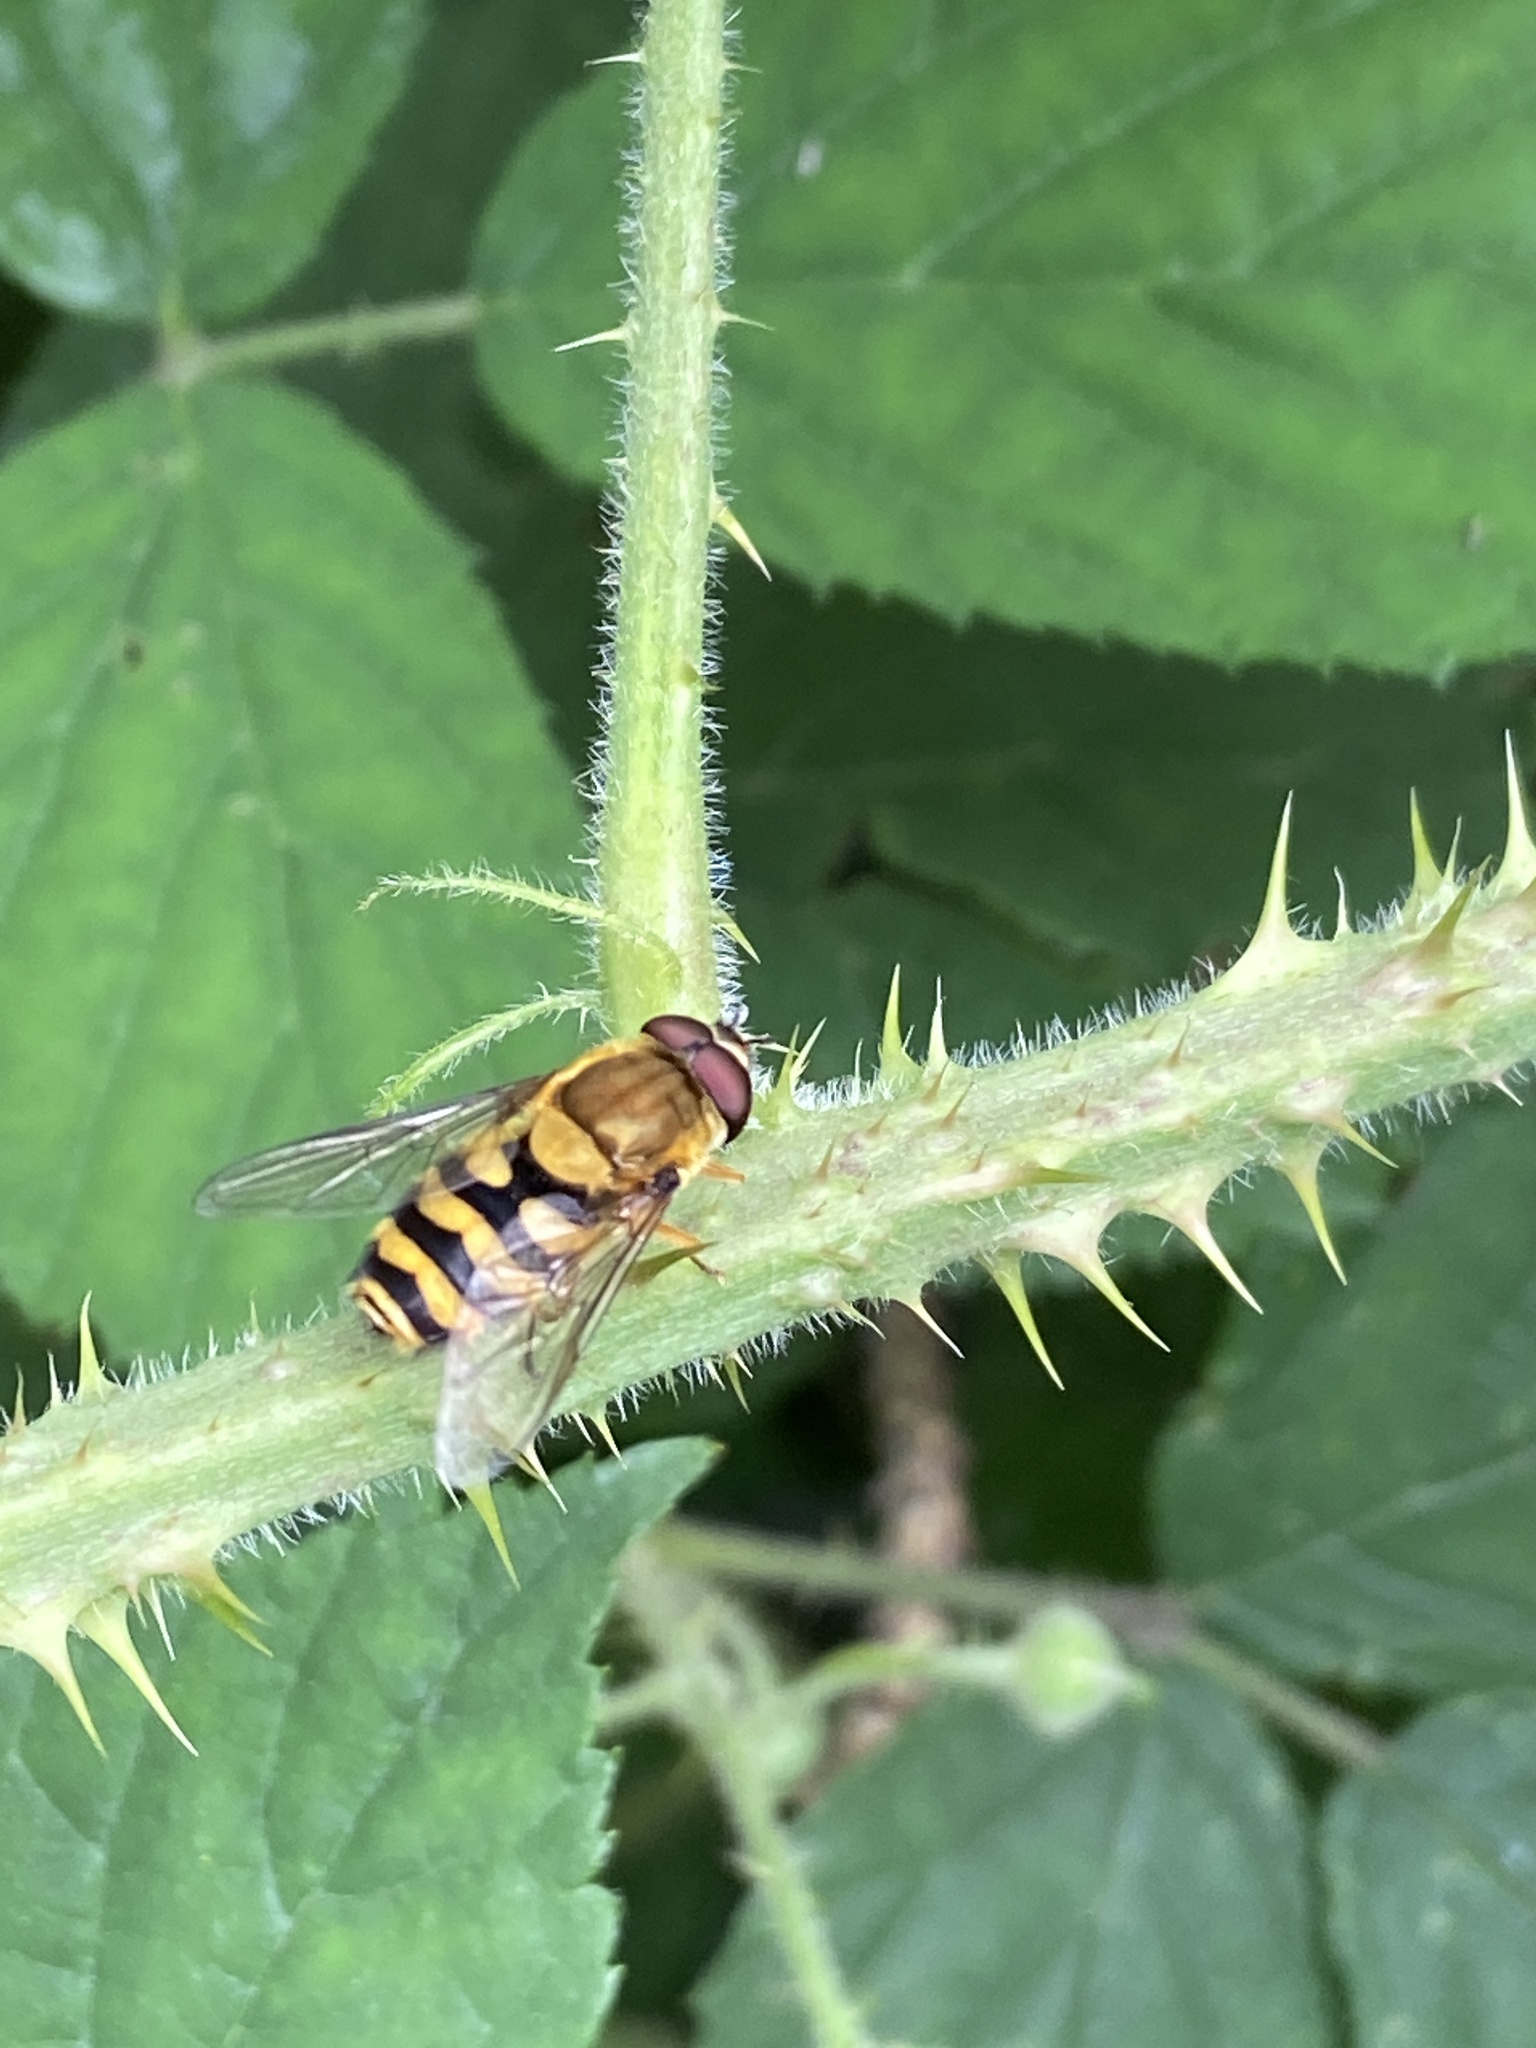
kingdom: Animalia
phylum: Arthropoda
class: Insecta
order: Diptera
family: Syrphidae
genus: Syrphus
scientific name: Syrphus ribesii
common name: Common flower fly
